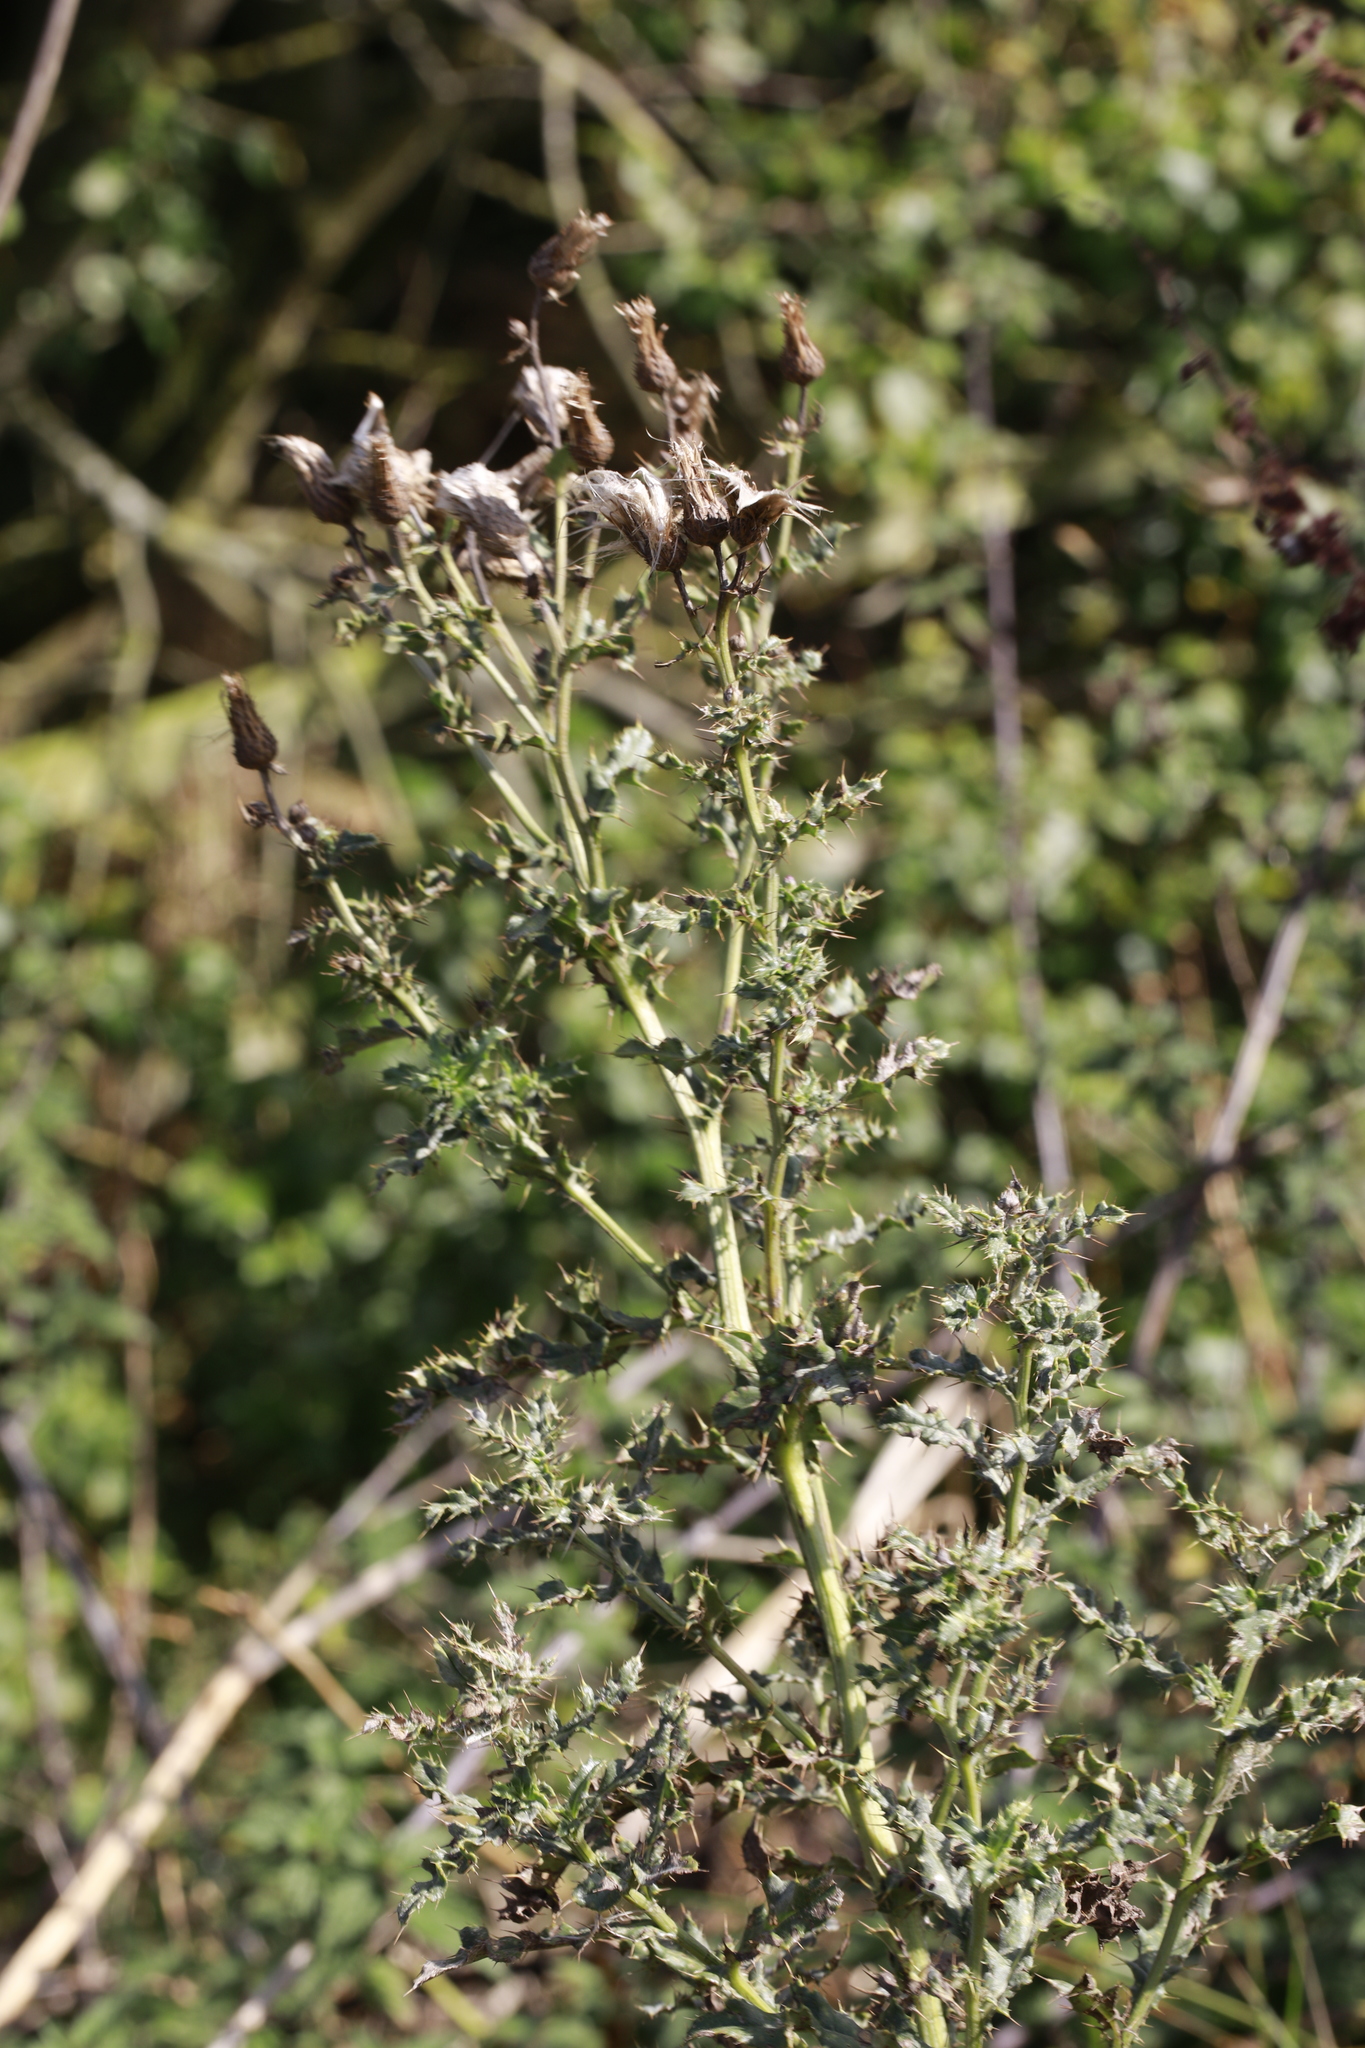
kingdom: Plantae
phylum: Tracheophyta
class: Magnoliopsida
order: Asterales
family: Asteraceae
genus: Cirsium
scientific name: Cirsium arvense
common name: Creeping thistle
